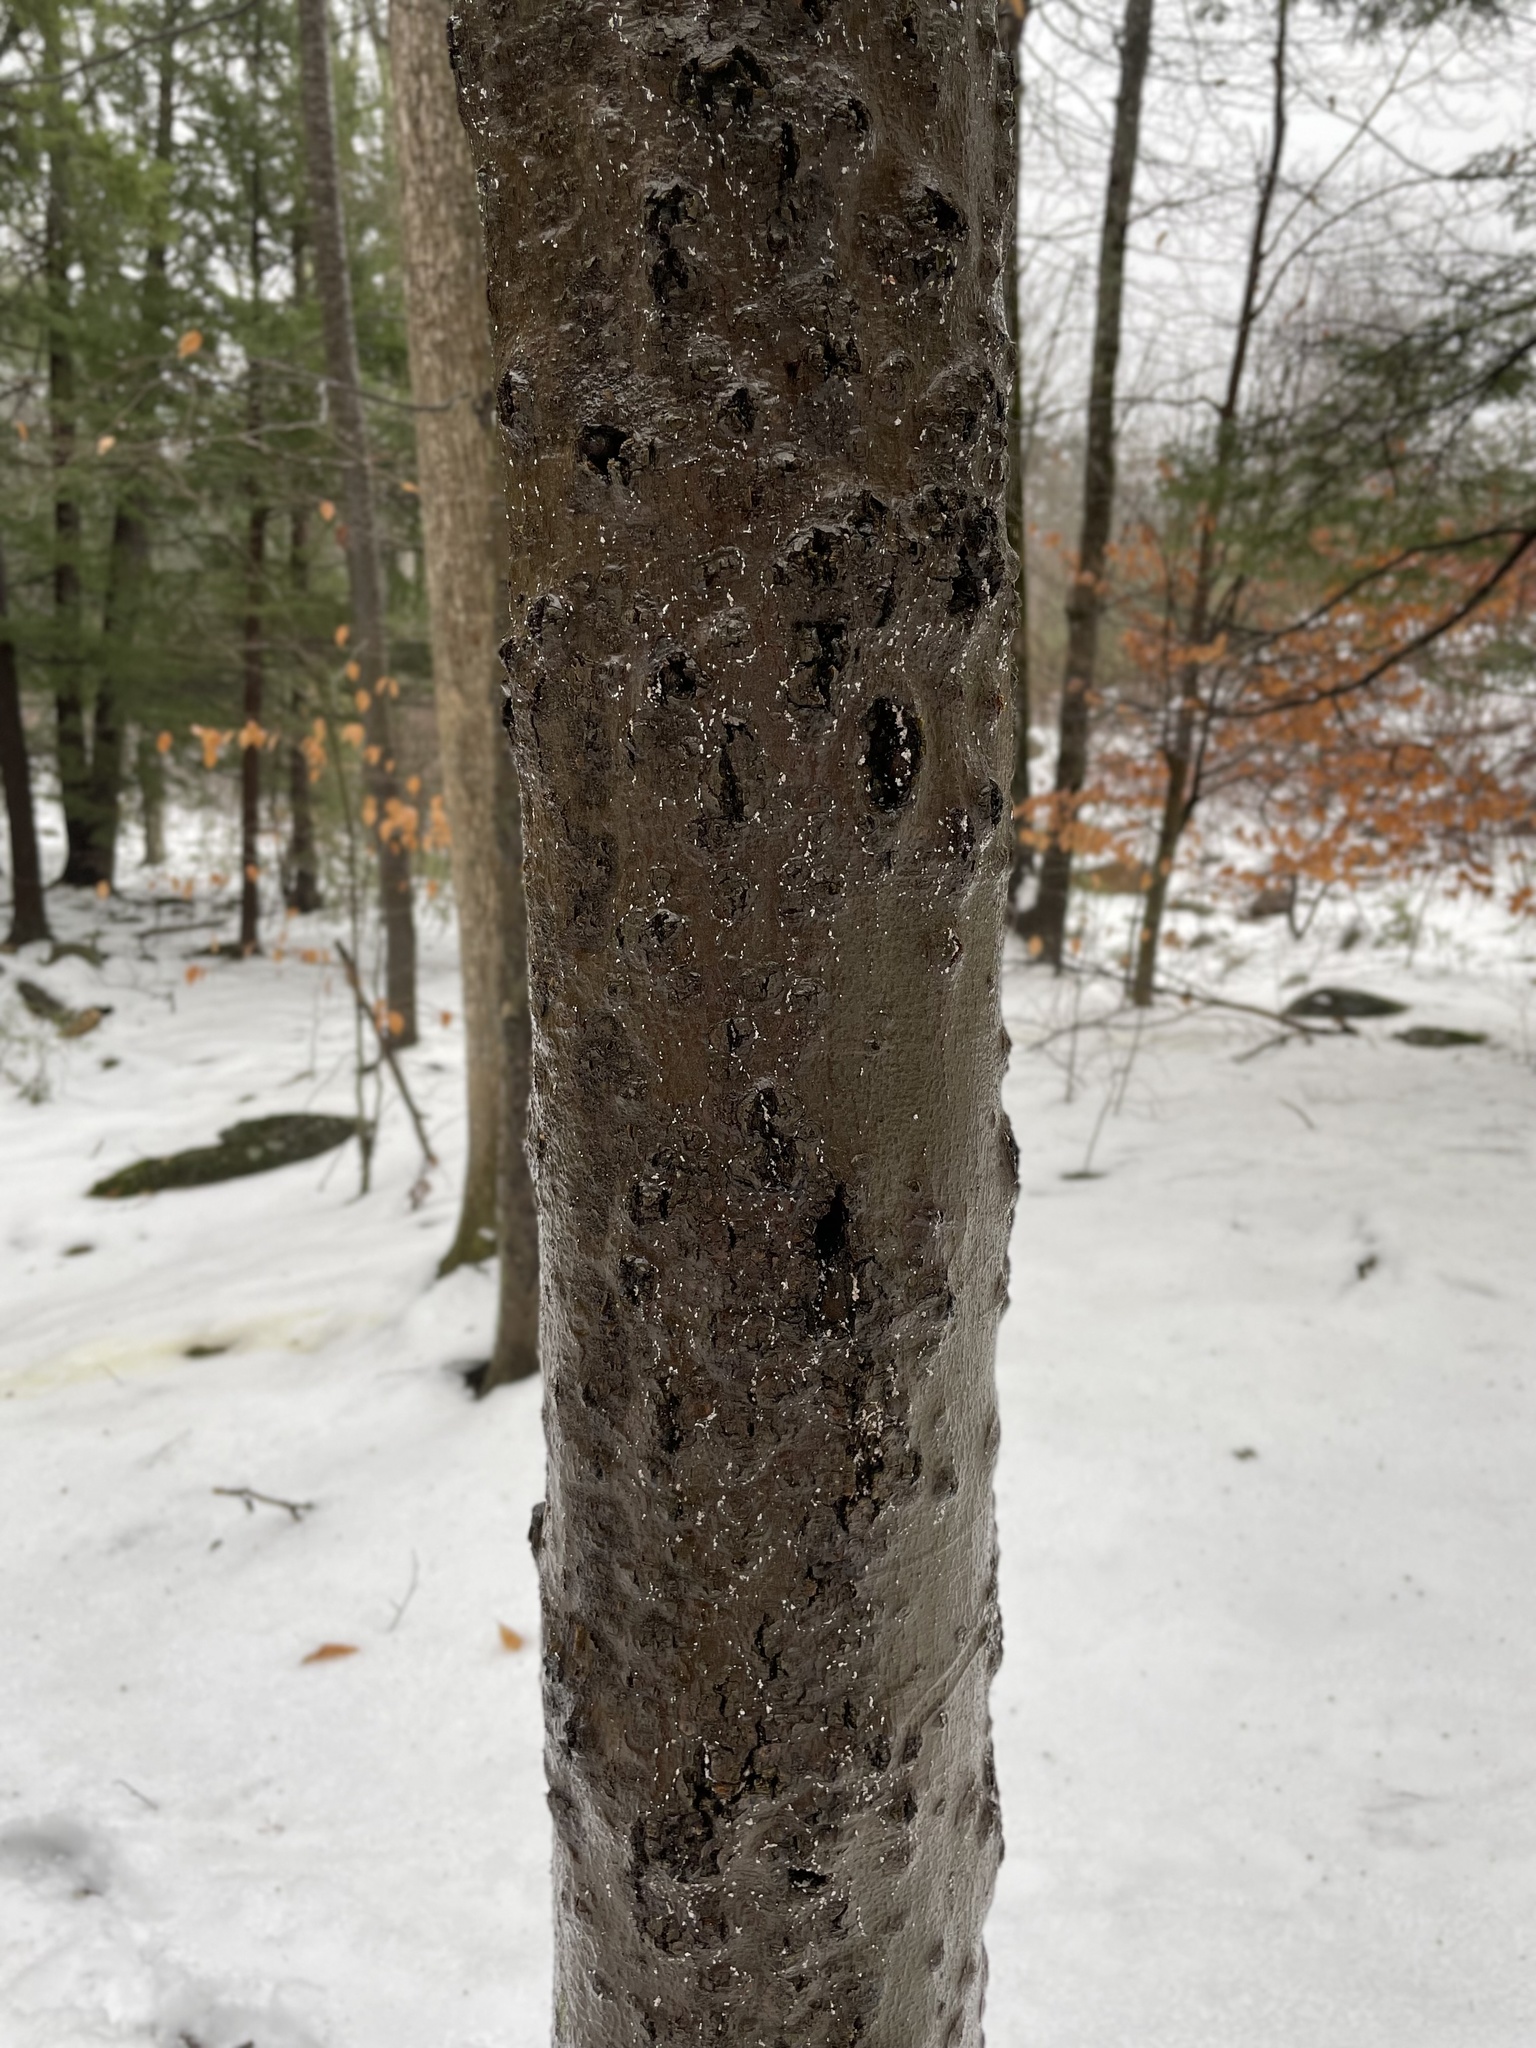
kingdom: Animalia
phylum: Arthropoda
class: Insecta
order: Hemiptera
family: Eriococcidae
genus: Cryptococcus
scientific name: Cryptococcus fagisuga
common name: Beech scale
